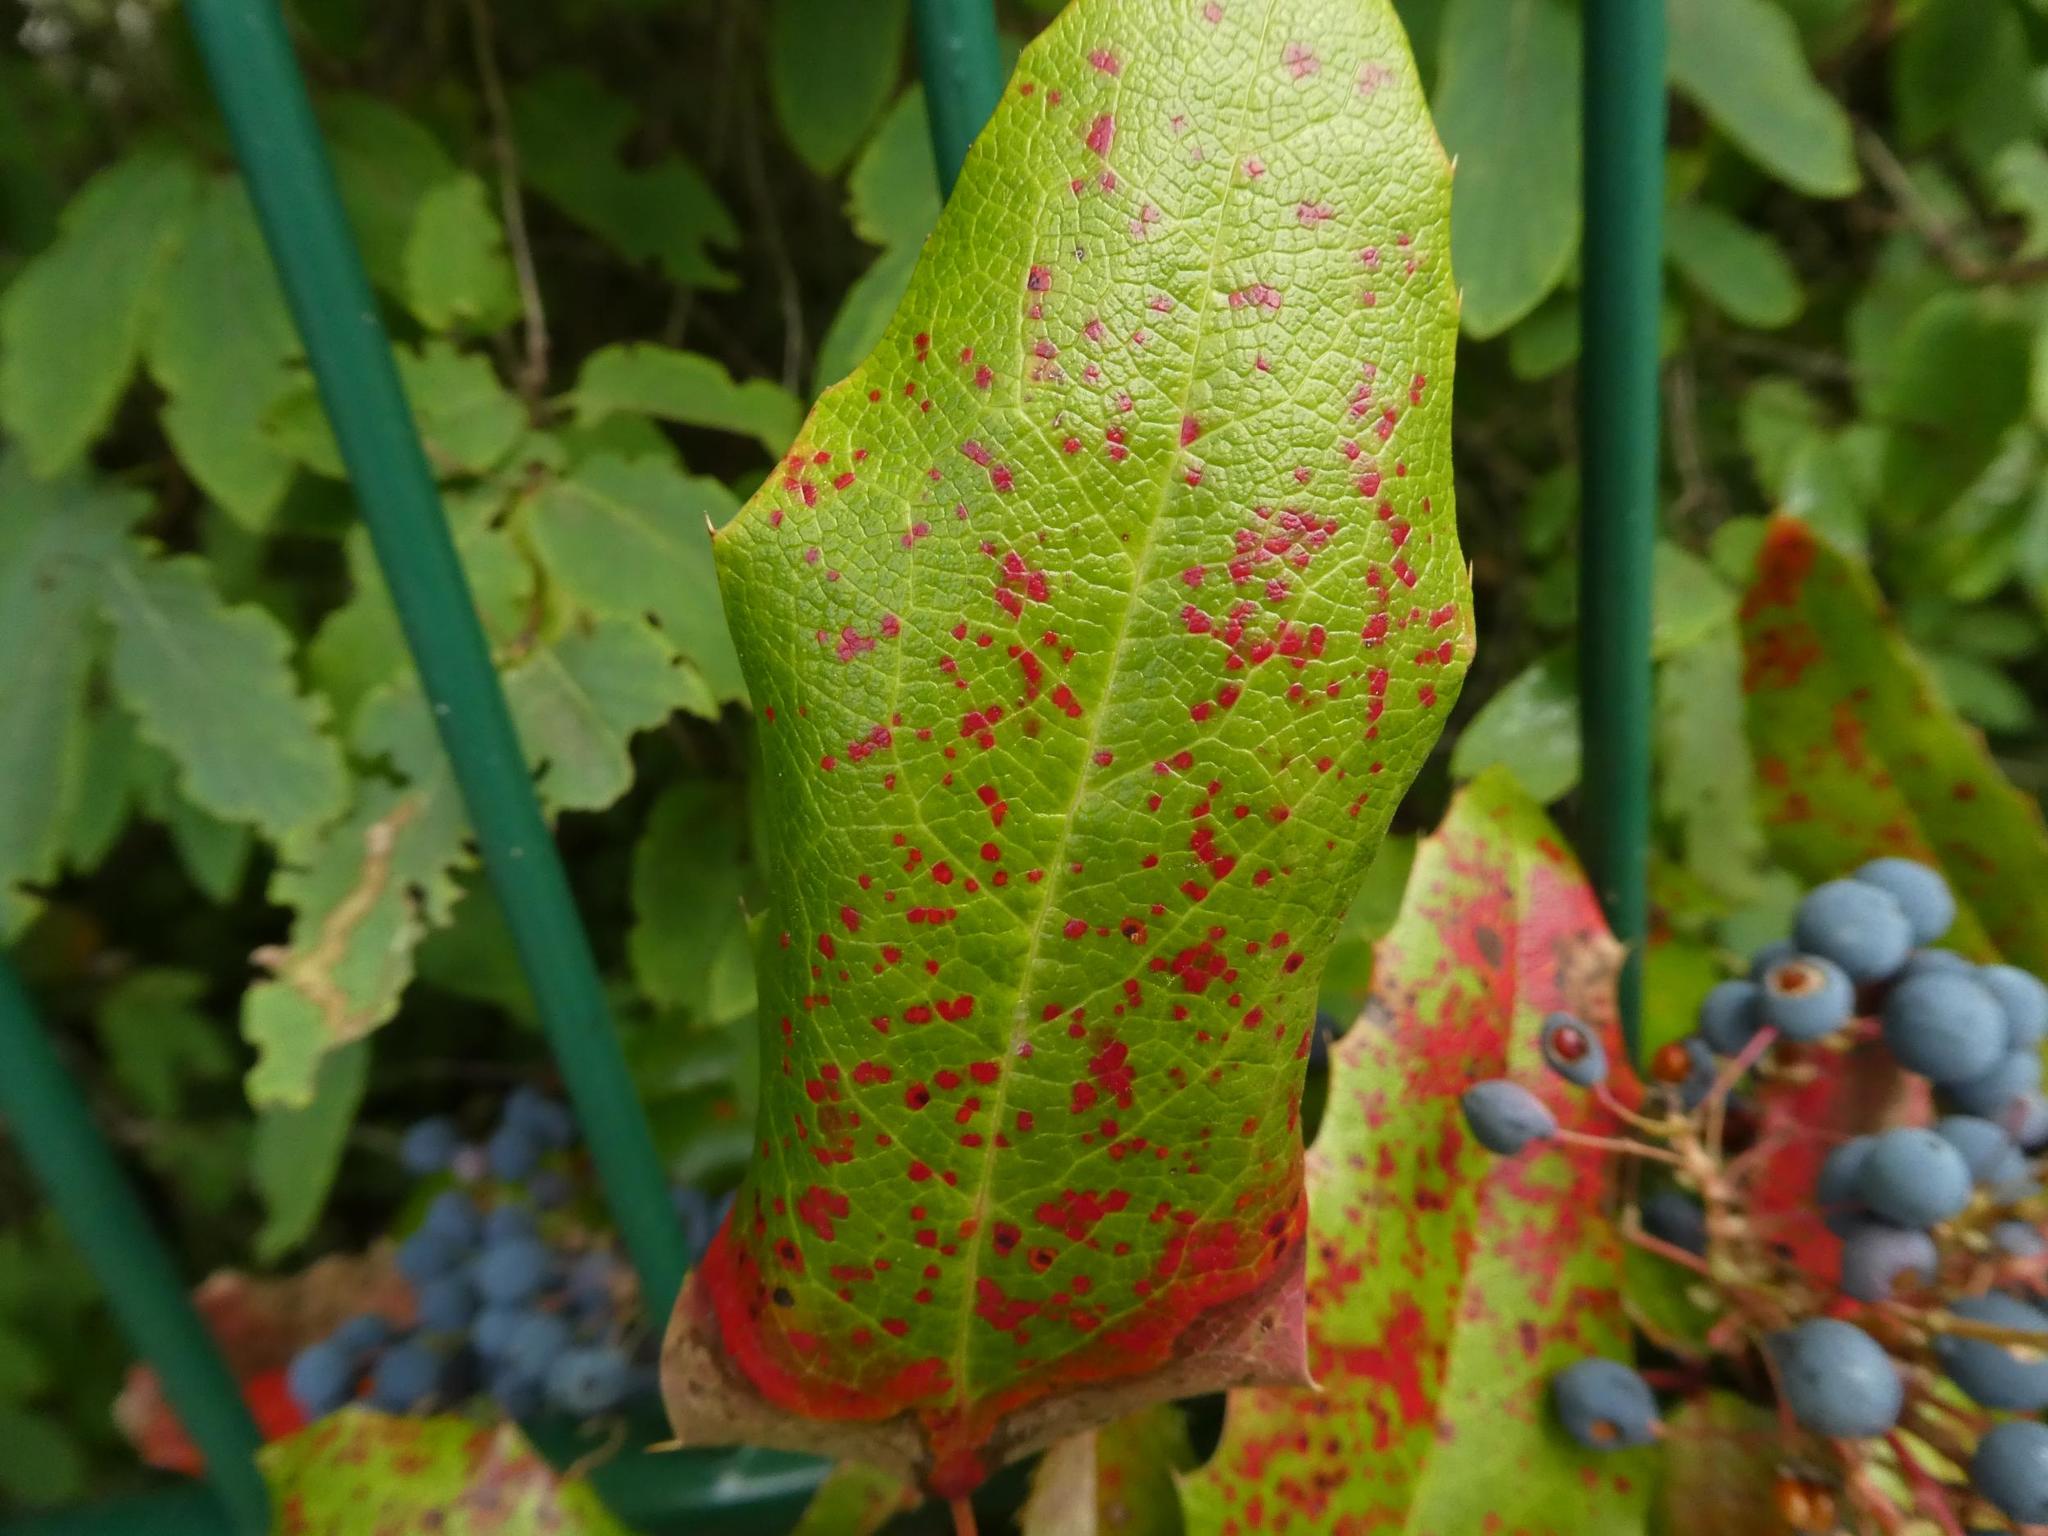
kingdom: Fungi
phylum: Basidiomycota
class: Pucciniomycetes
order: Pucciniales
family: Pucciniaceae
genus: Cumminsiella
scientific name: Cumminsiella mirabilissima
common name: Mahonia rust
